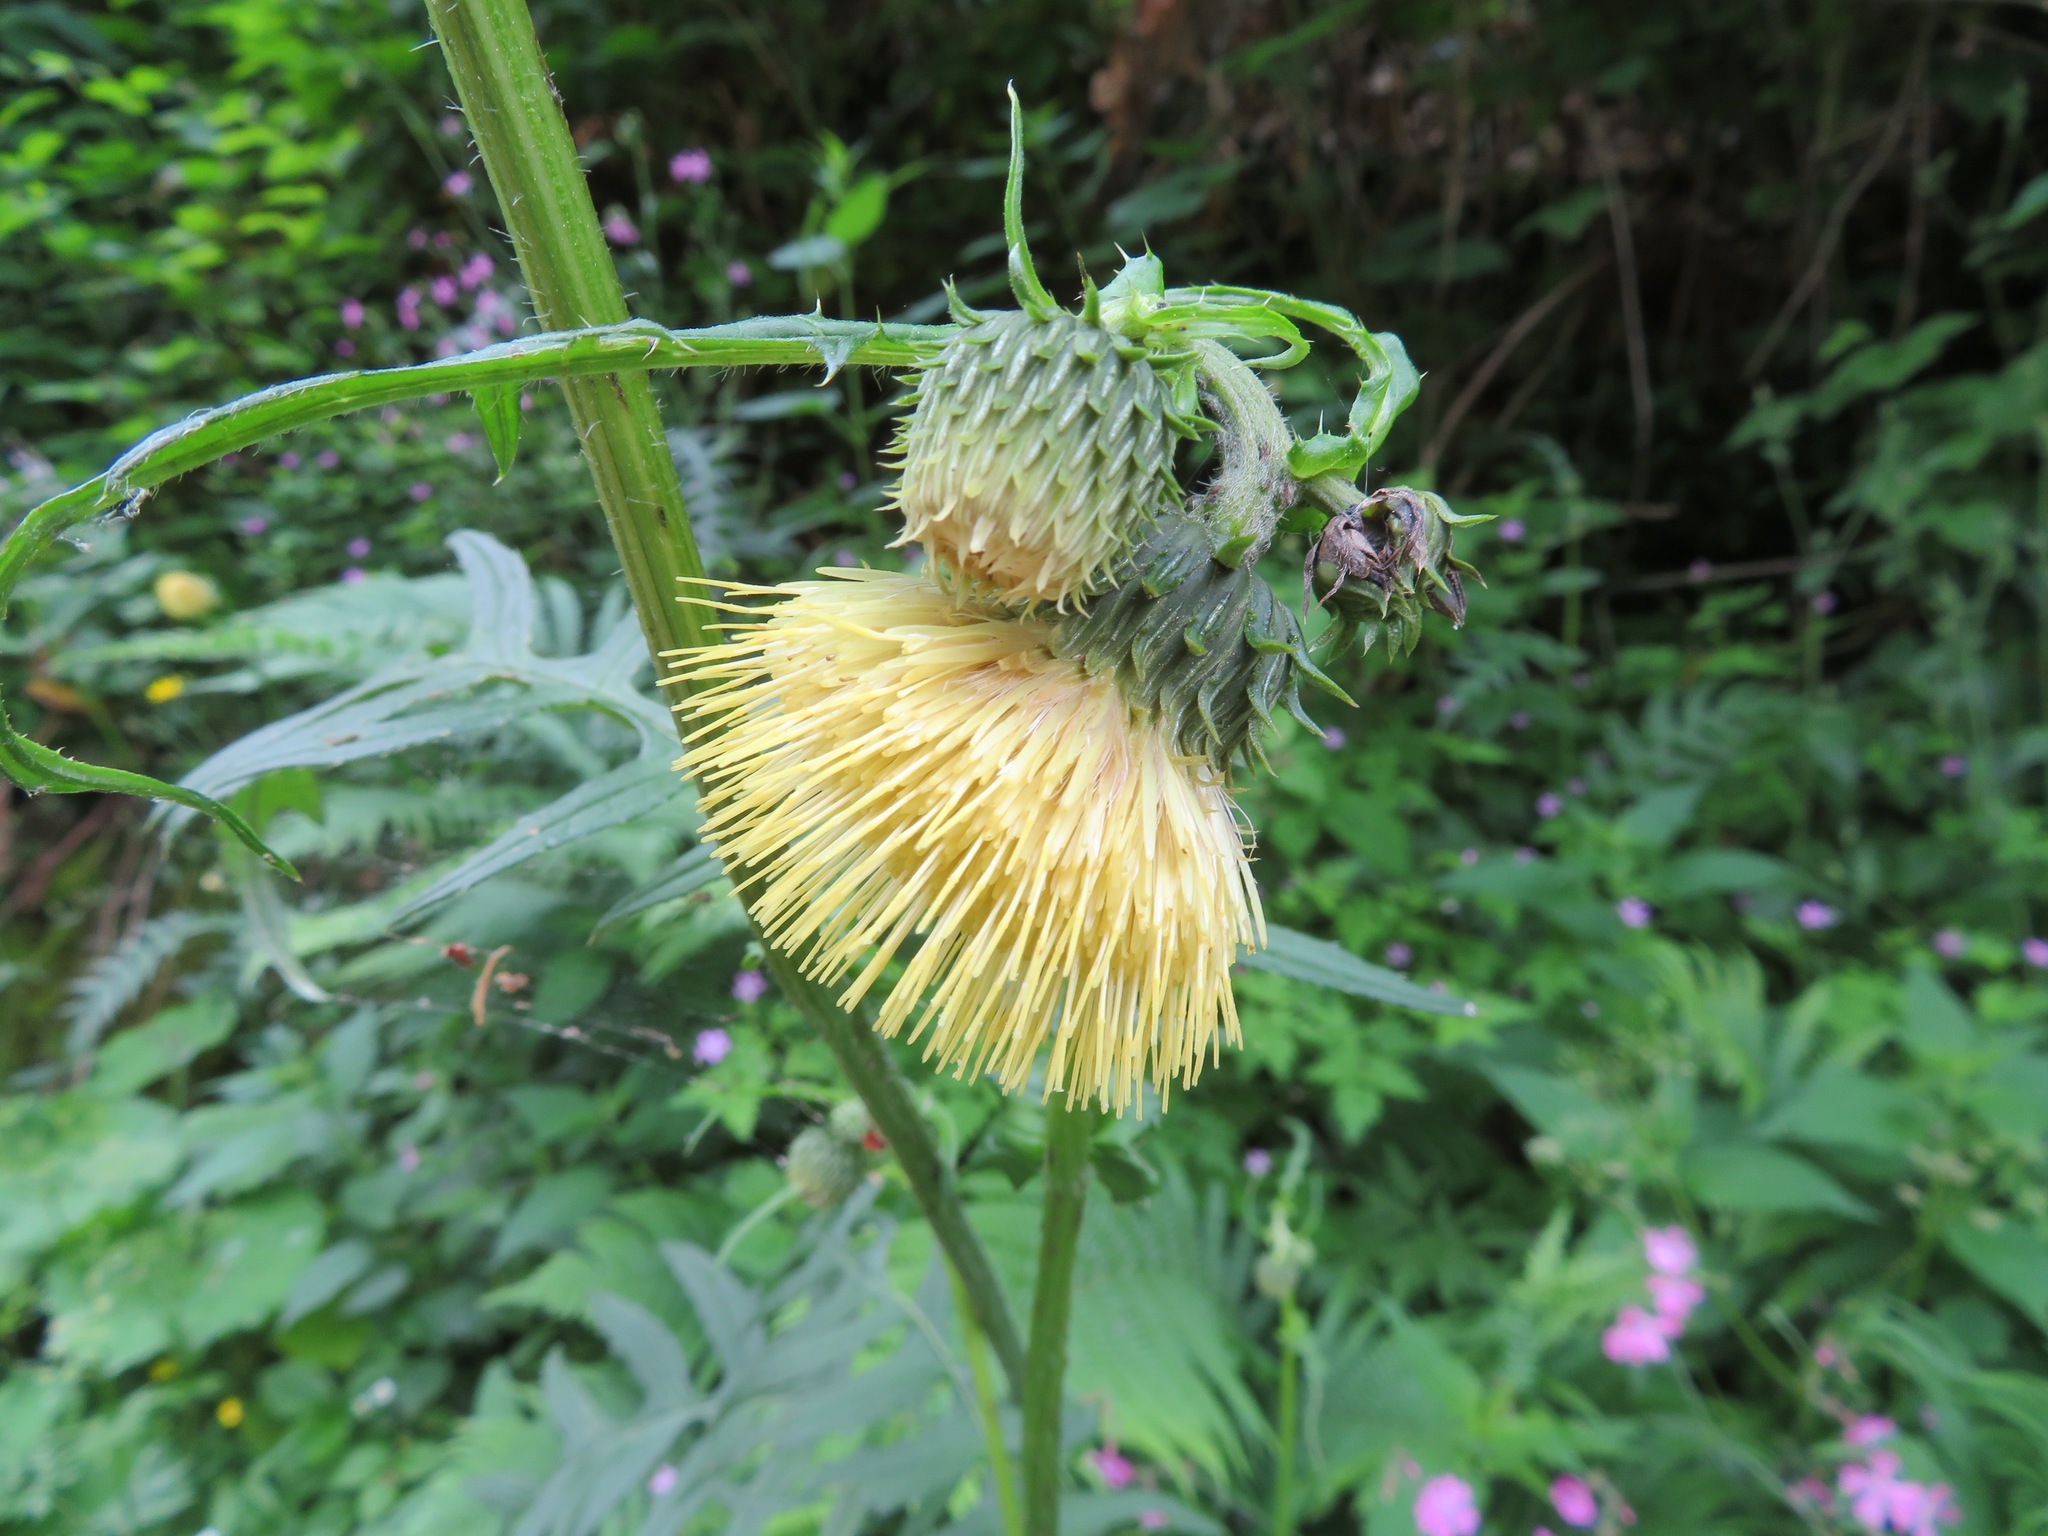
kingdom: Plantae
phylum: Tracheophyta
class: Magnoliopsida
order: Asterales
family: Asteraceae
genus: Cirsium
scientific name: Cirsium erisithales
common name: Yellow thistle
